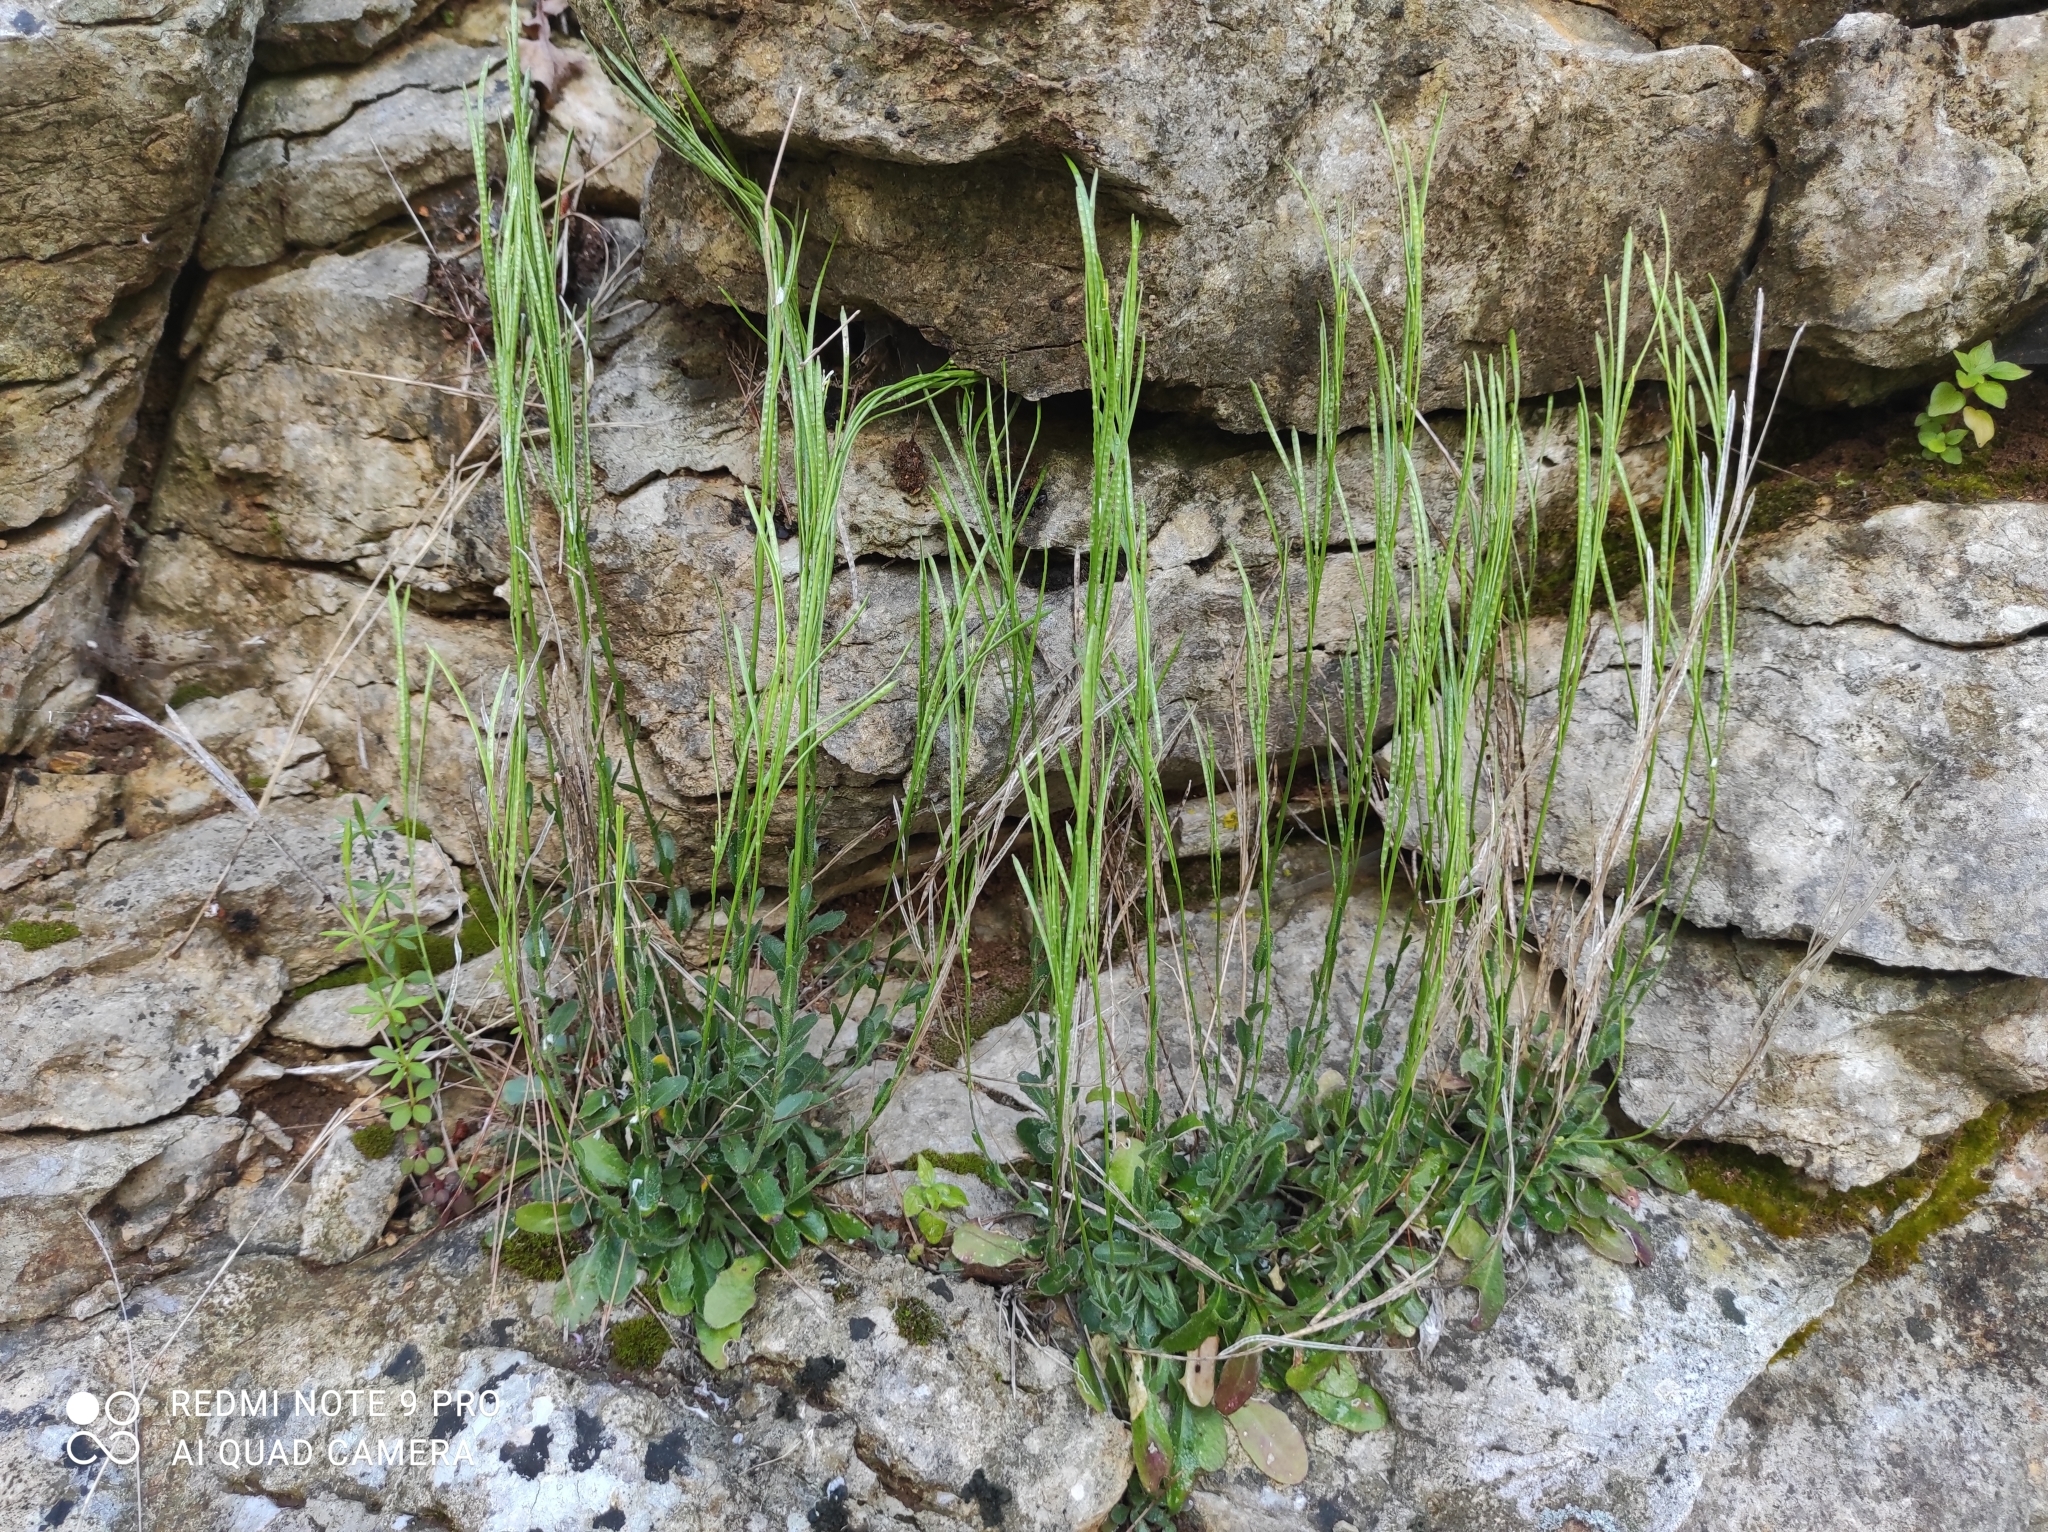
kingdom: Plantae
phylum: Tracheophyta
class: Magnoliopsida
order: Brassicales
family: Brassicaceae
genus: Arabis
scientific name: Arabis verna
